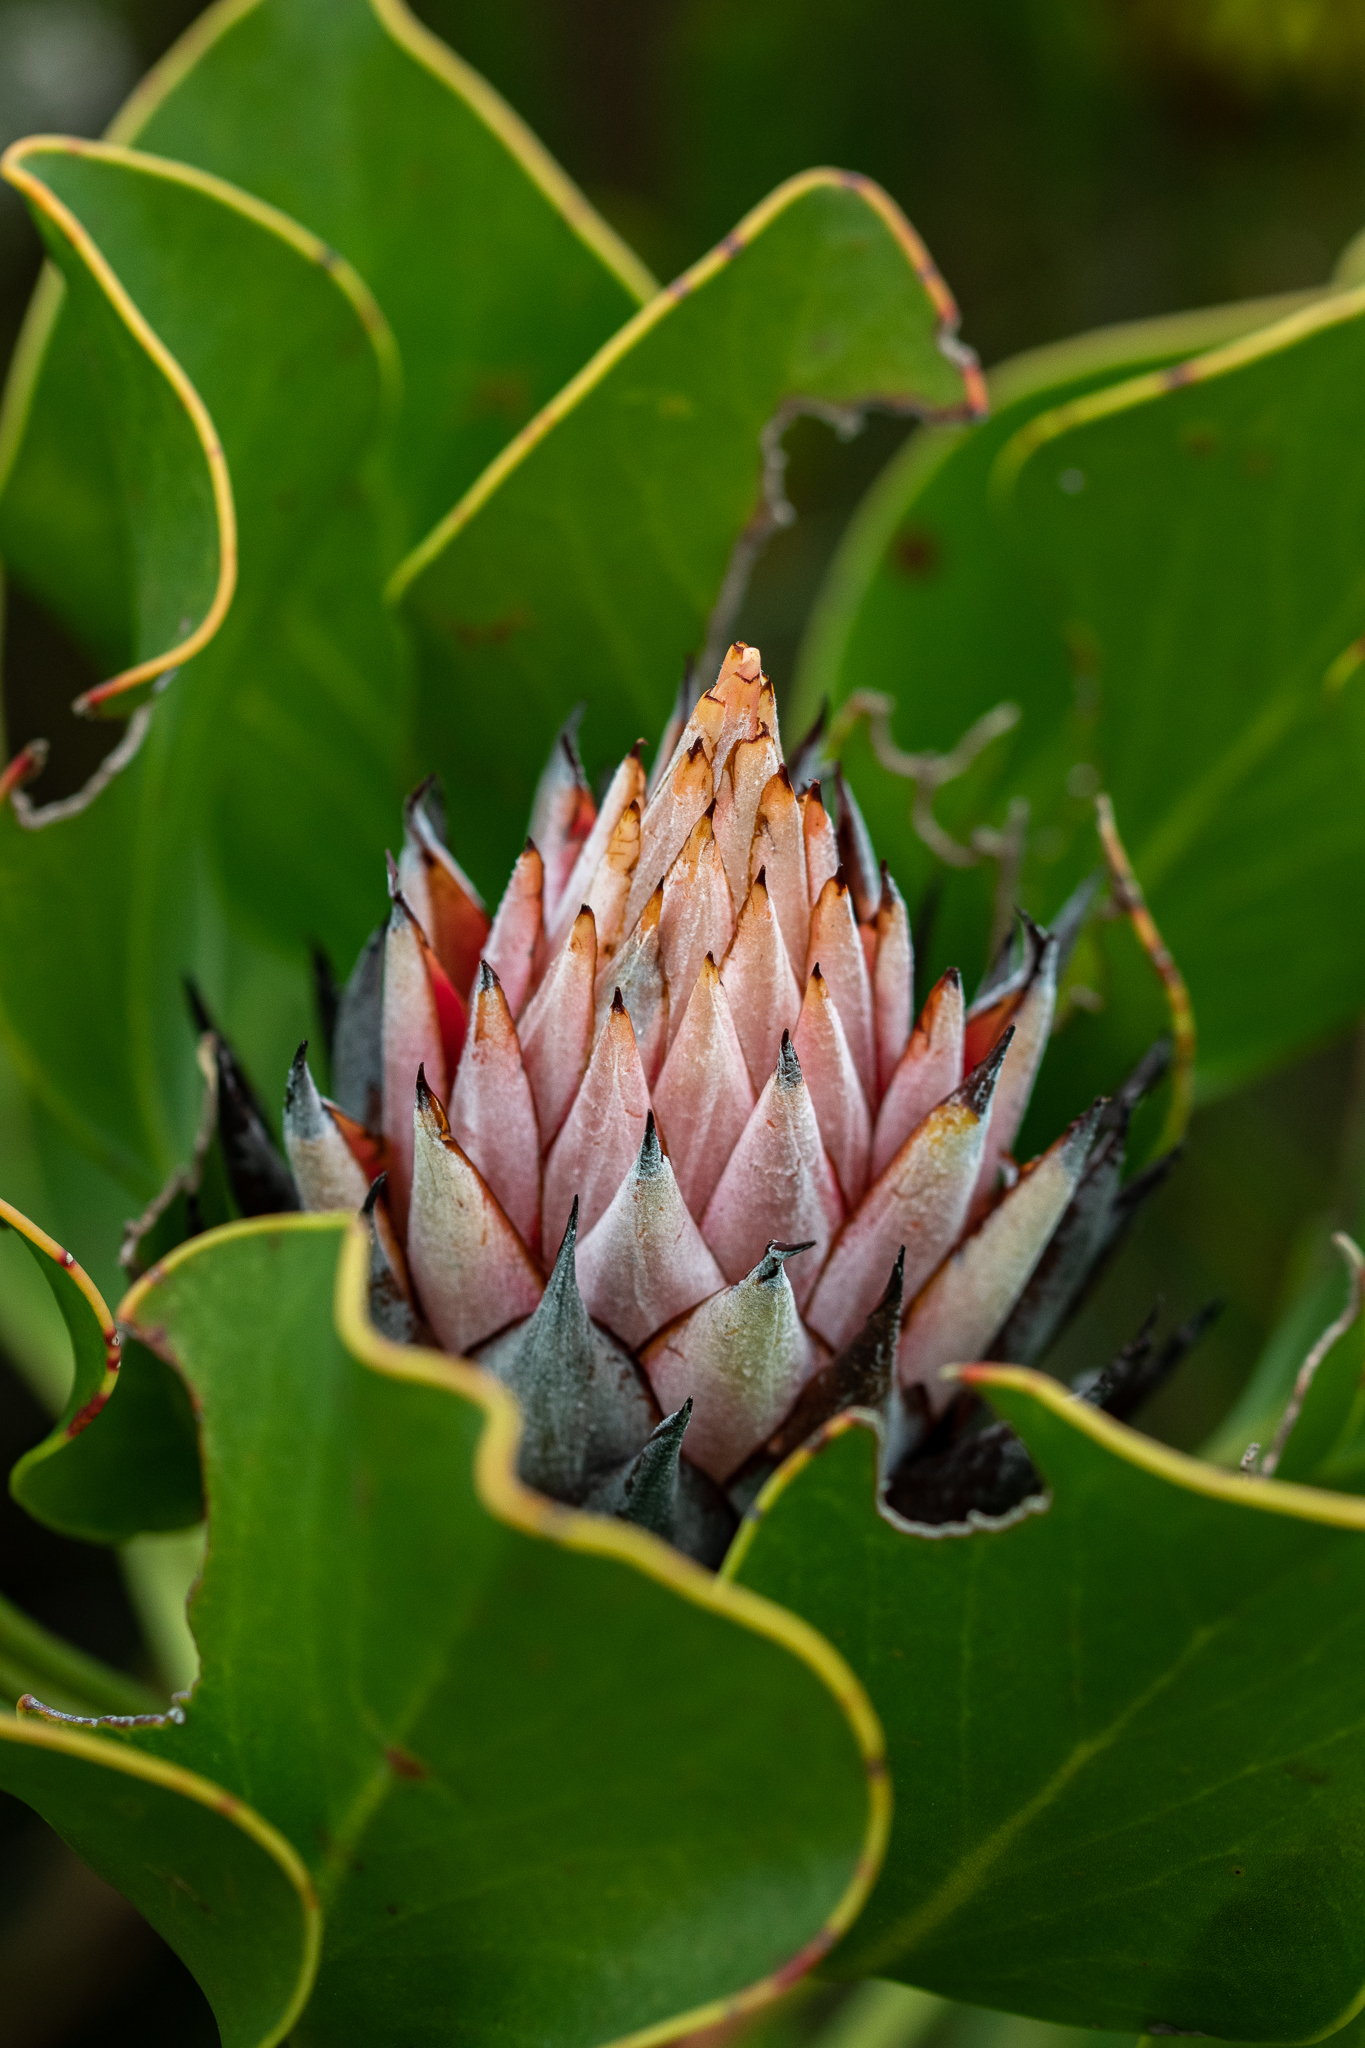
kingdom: Plantae
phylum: Tracheophyta
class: Magnoliopsida
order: Proteales
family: Proteaceae
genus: Protea
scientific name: Protea cynaroides
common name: King protea
